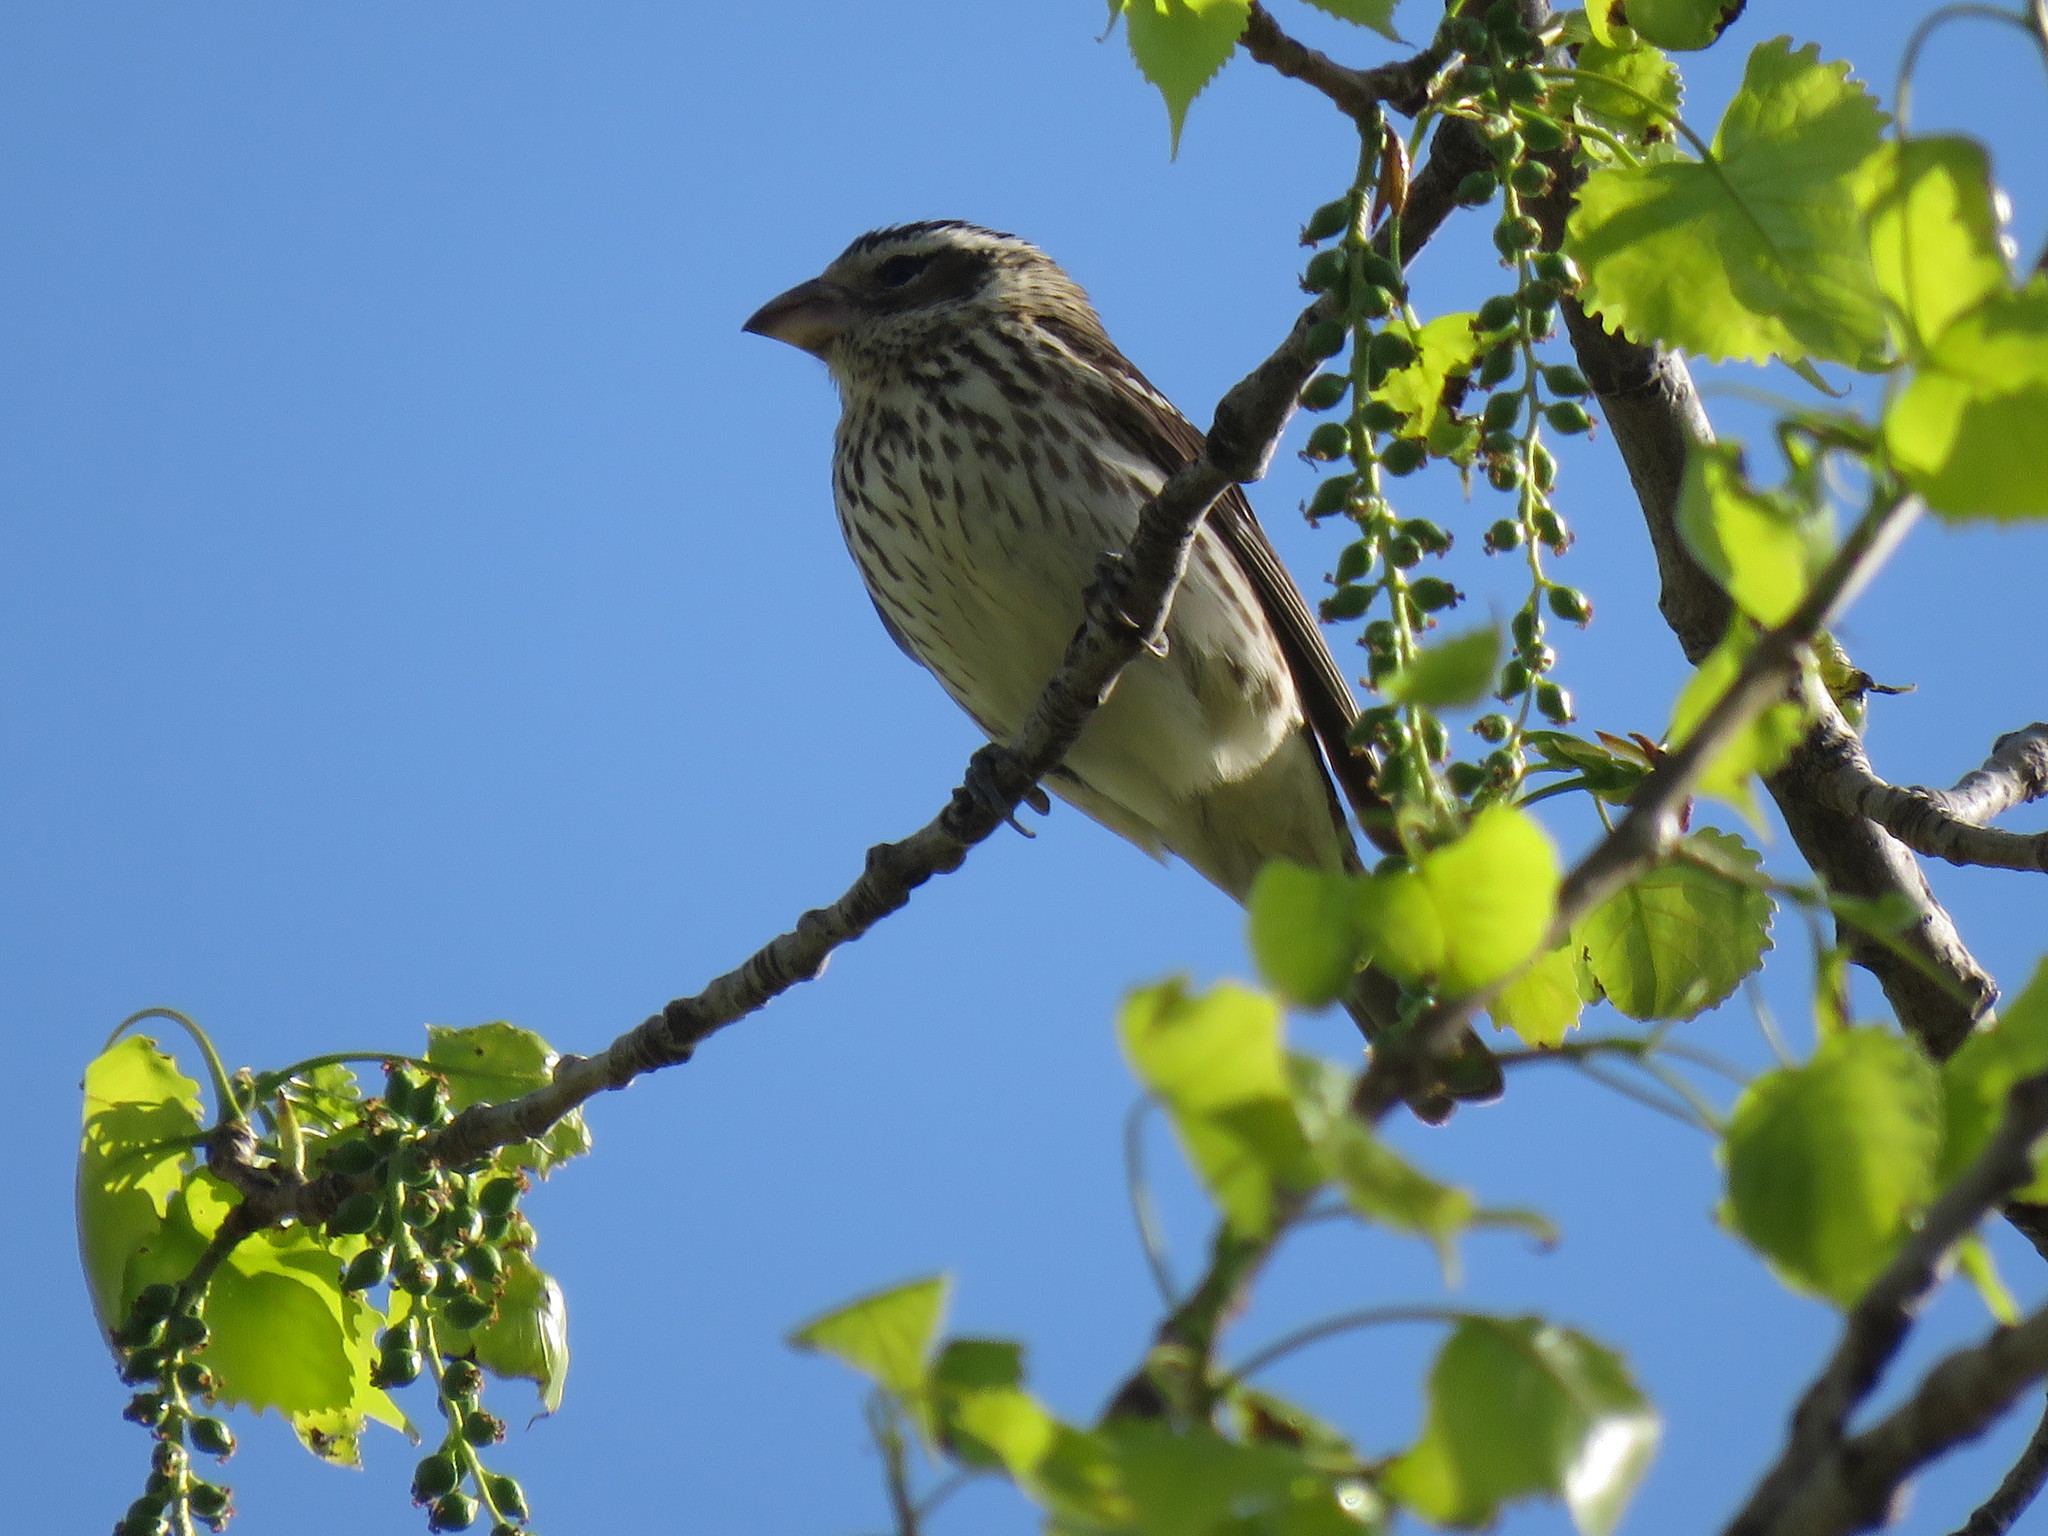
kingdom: Animalia
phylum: Chordata
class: Aves
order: Passeriformes
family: Cardinalidae
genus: Pheucticus
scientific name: Pheucticus ludovicianus
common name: Rose-breasted grosbeak
